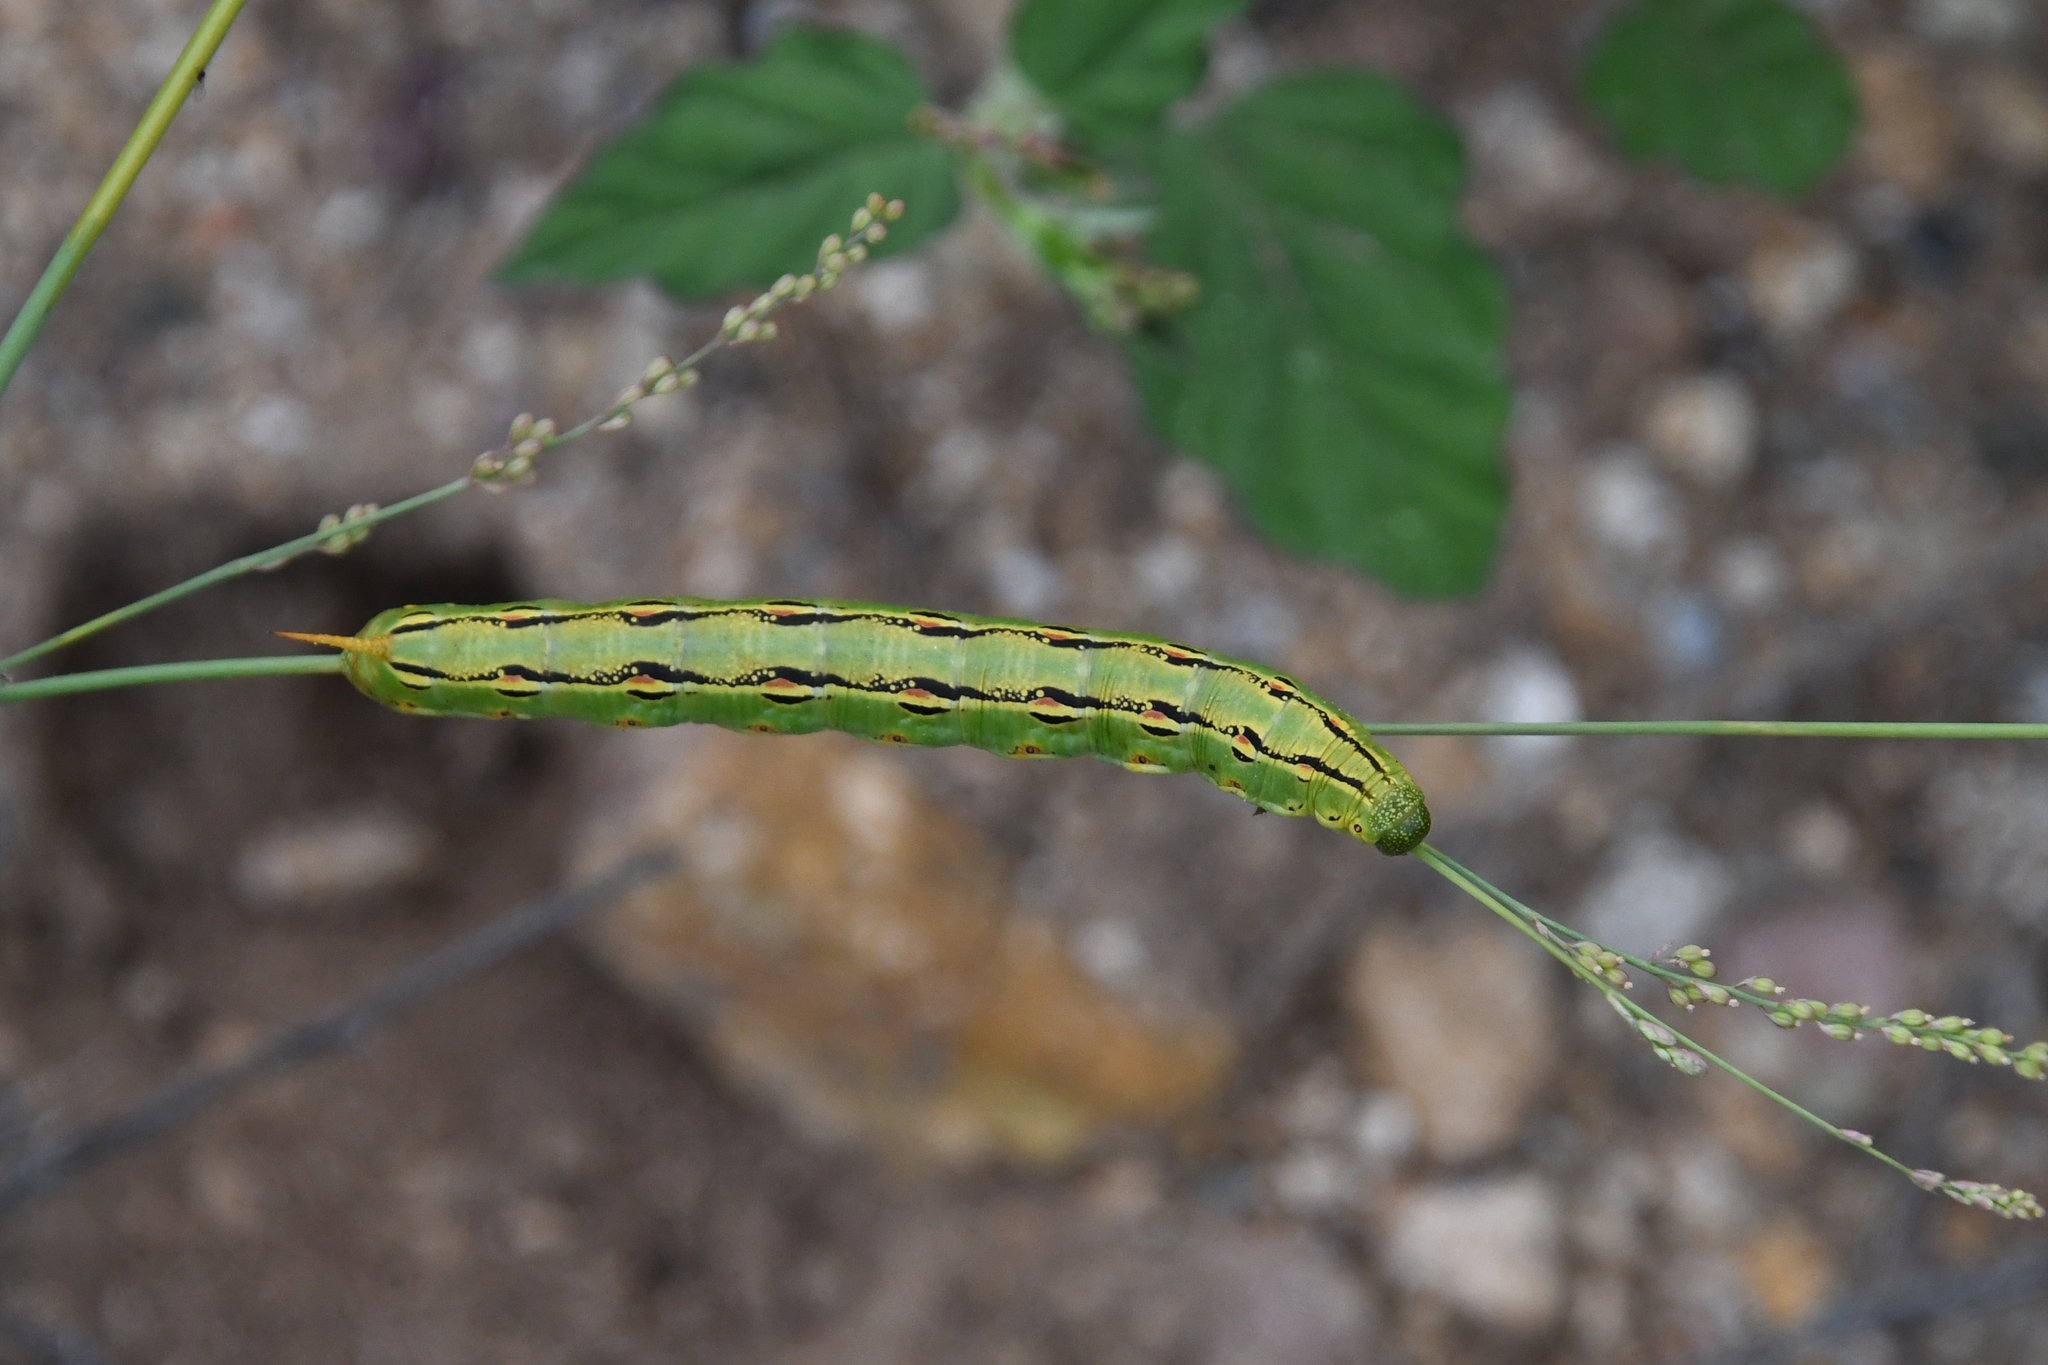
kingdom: Animalia
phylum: Arthropoda
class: Insecta
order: Lepidoptera
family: Sphingidae
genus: Hyles
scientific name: Hyles lineata
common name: White-lined sphinx
